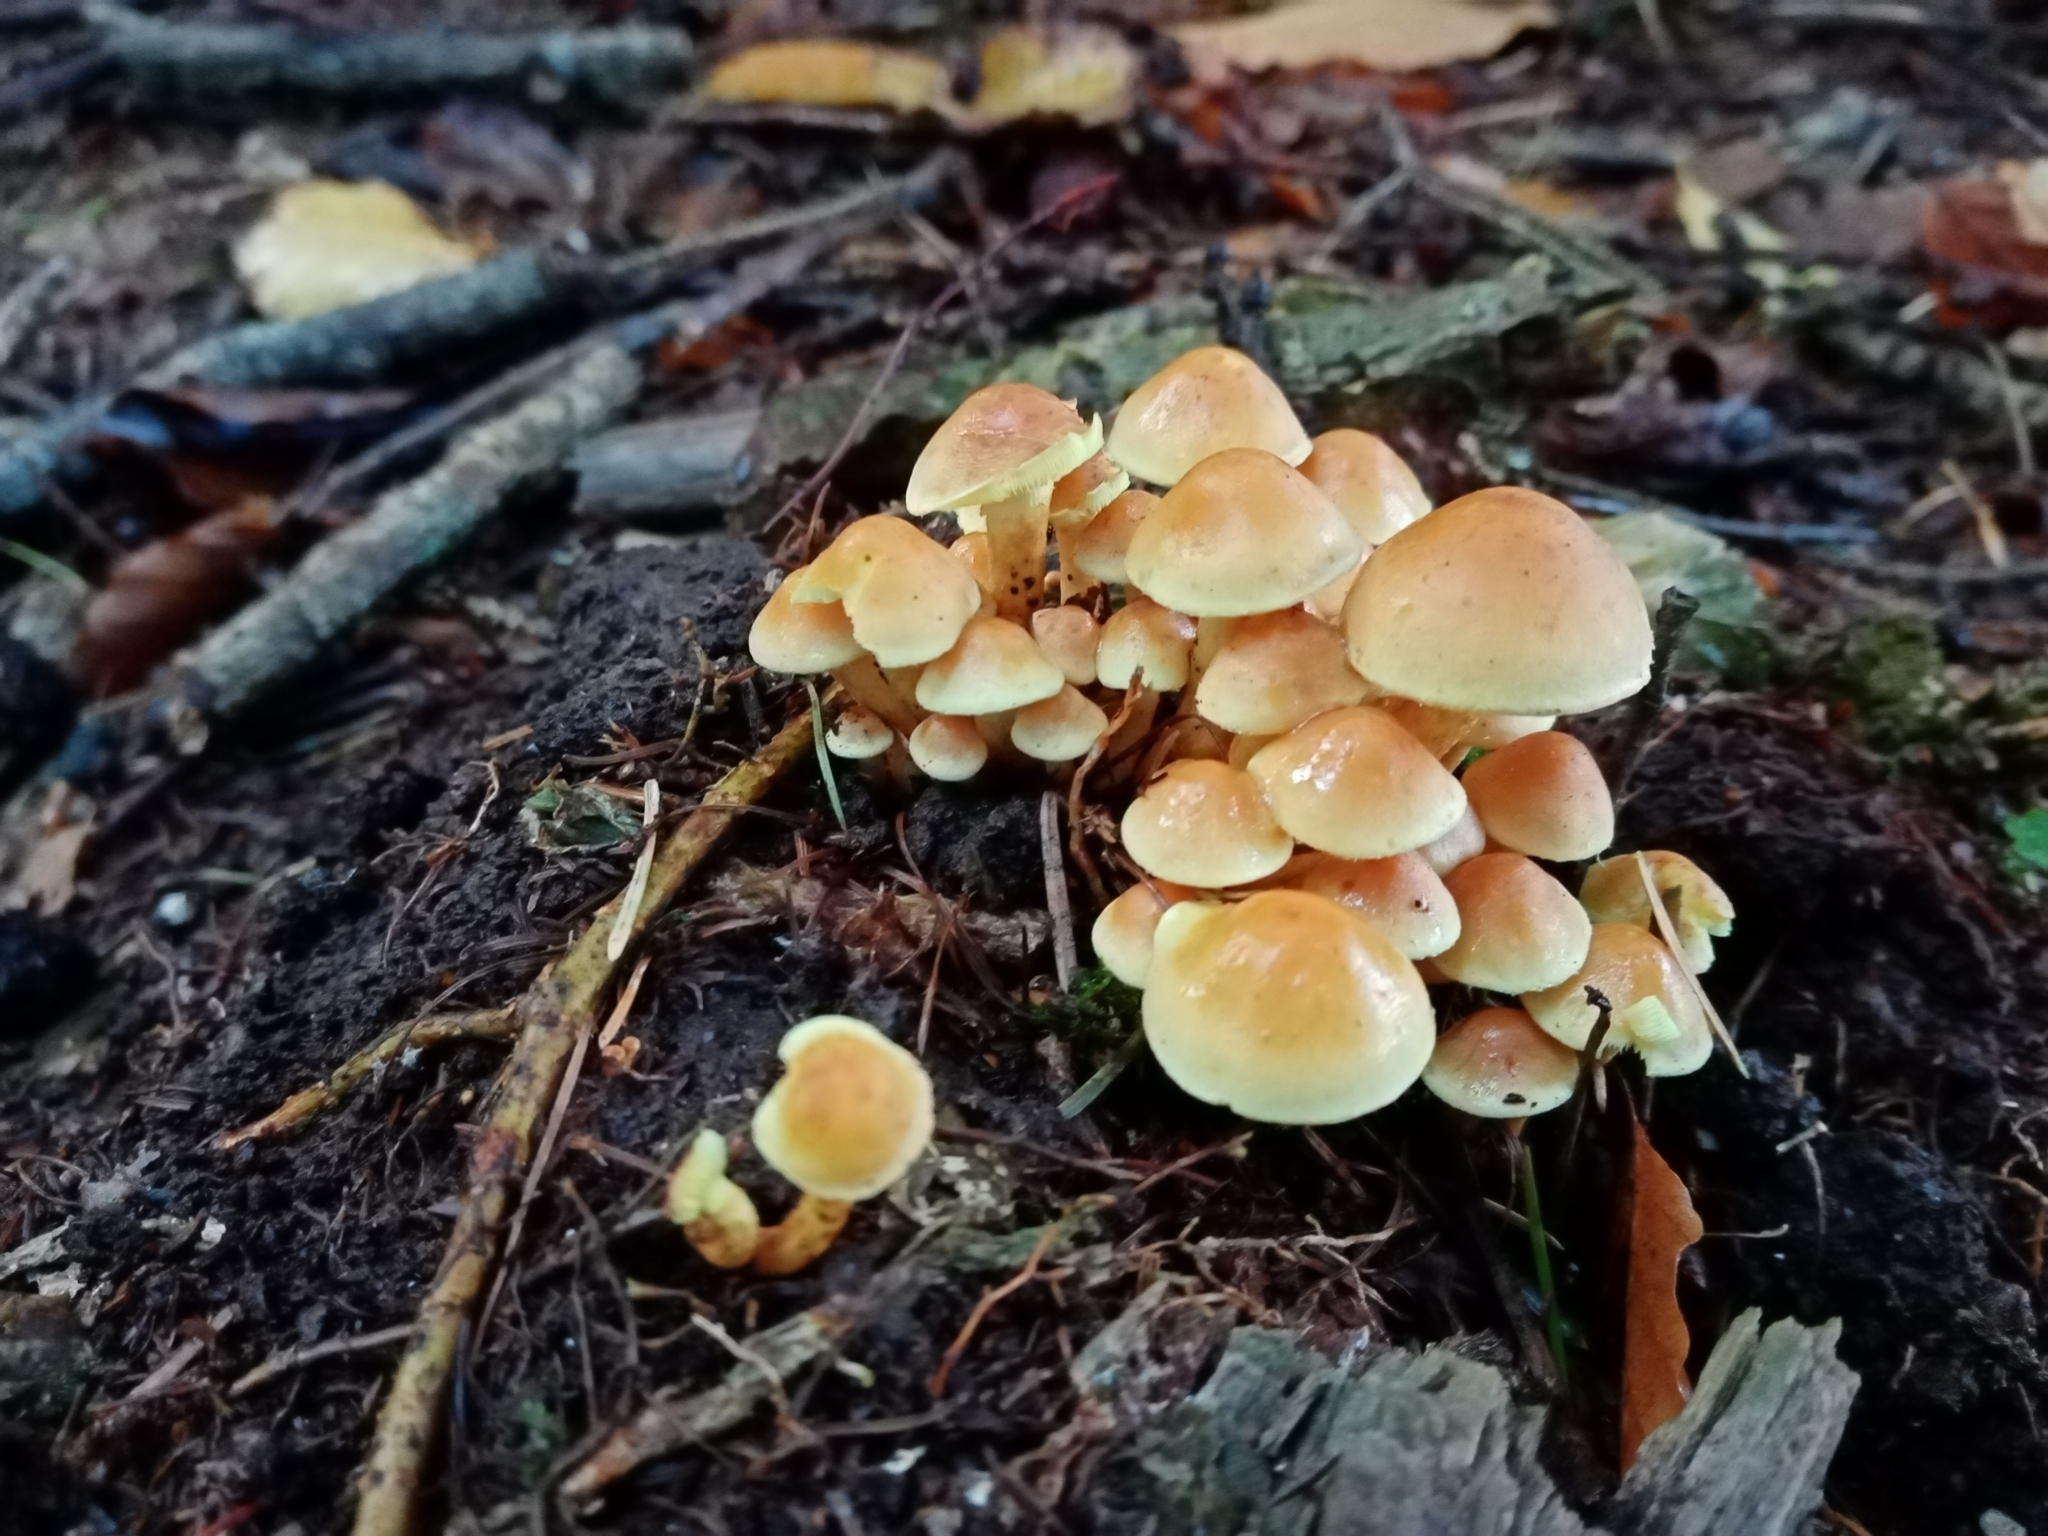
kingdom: Fungi
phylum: Basidiomycota
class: Agaricomycetes
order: Agaricales
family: Strophariaceae
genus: Hypholoma
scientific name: Hypholoma fasciculare
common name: Sulphur tuft
